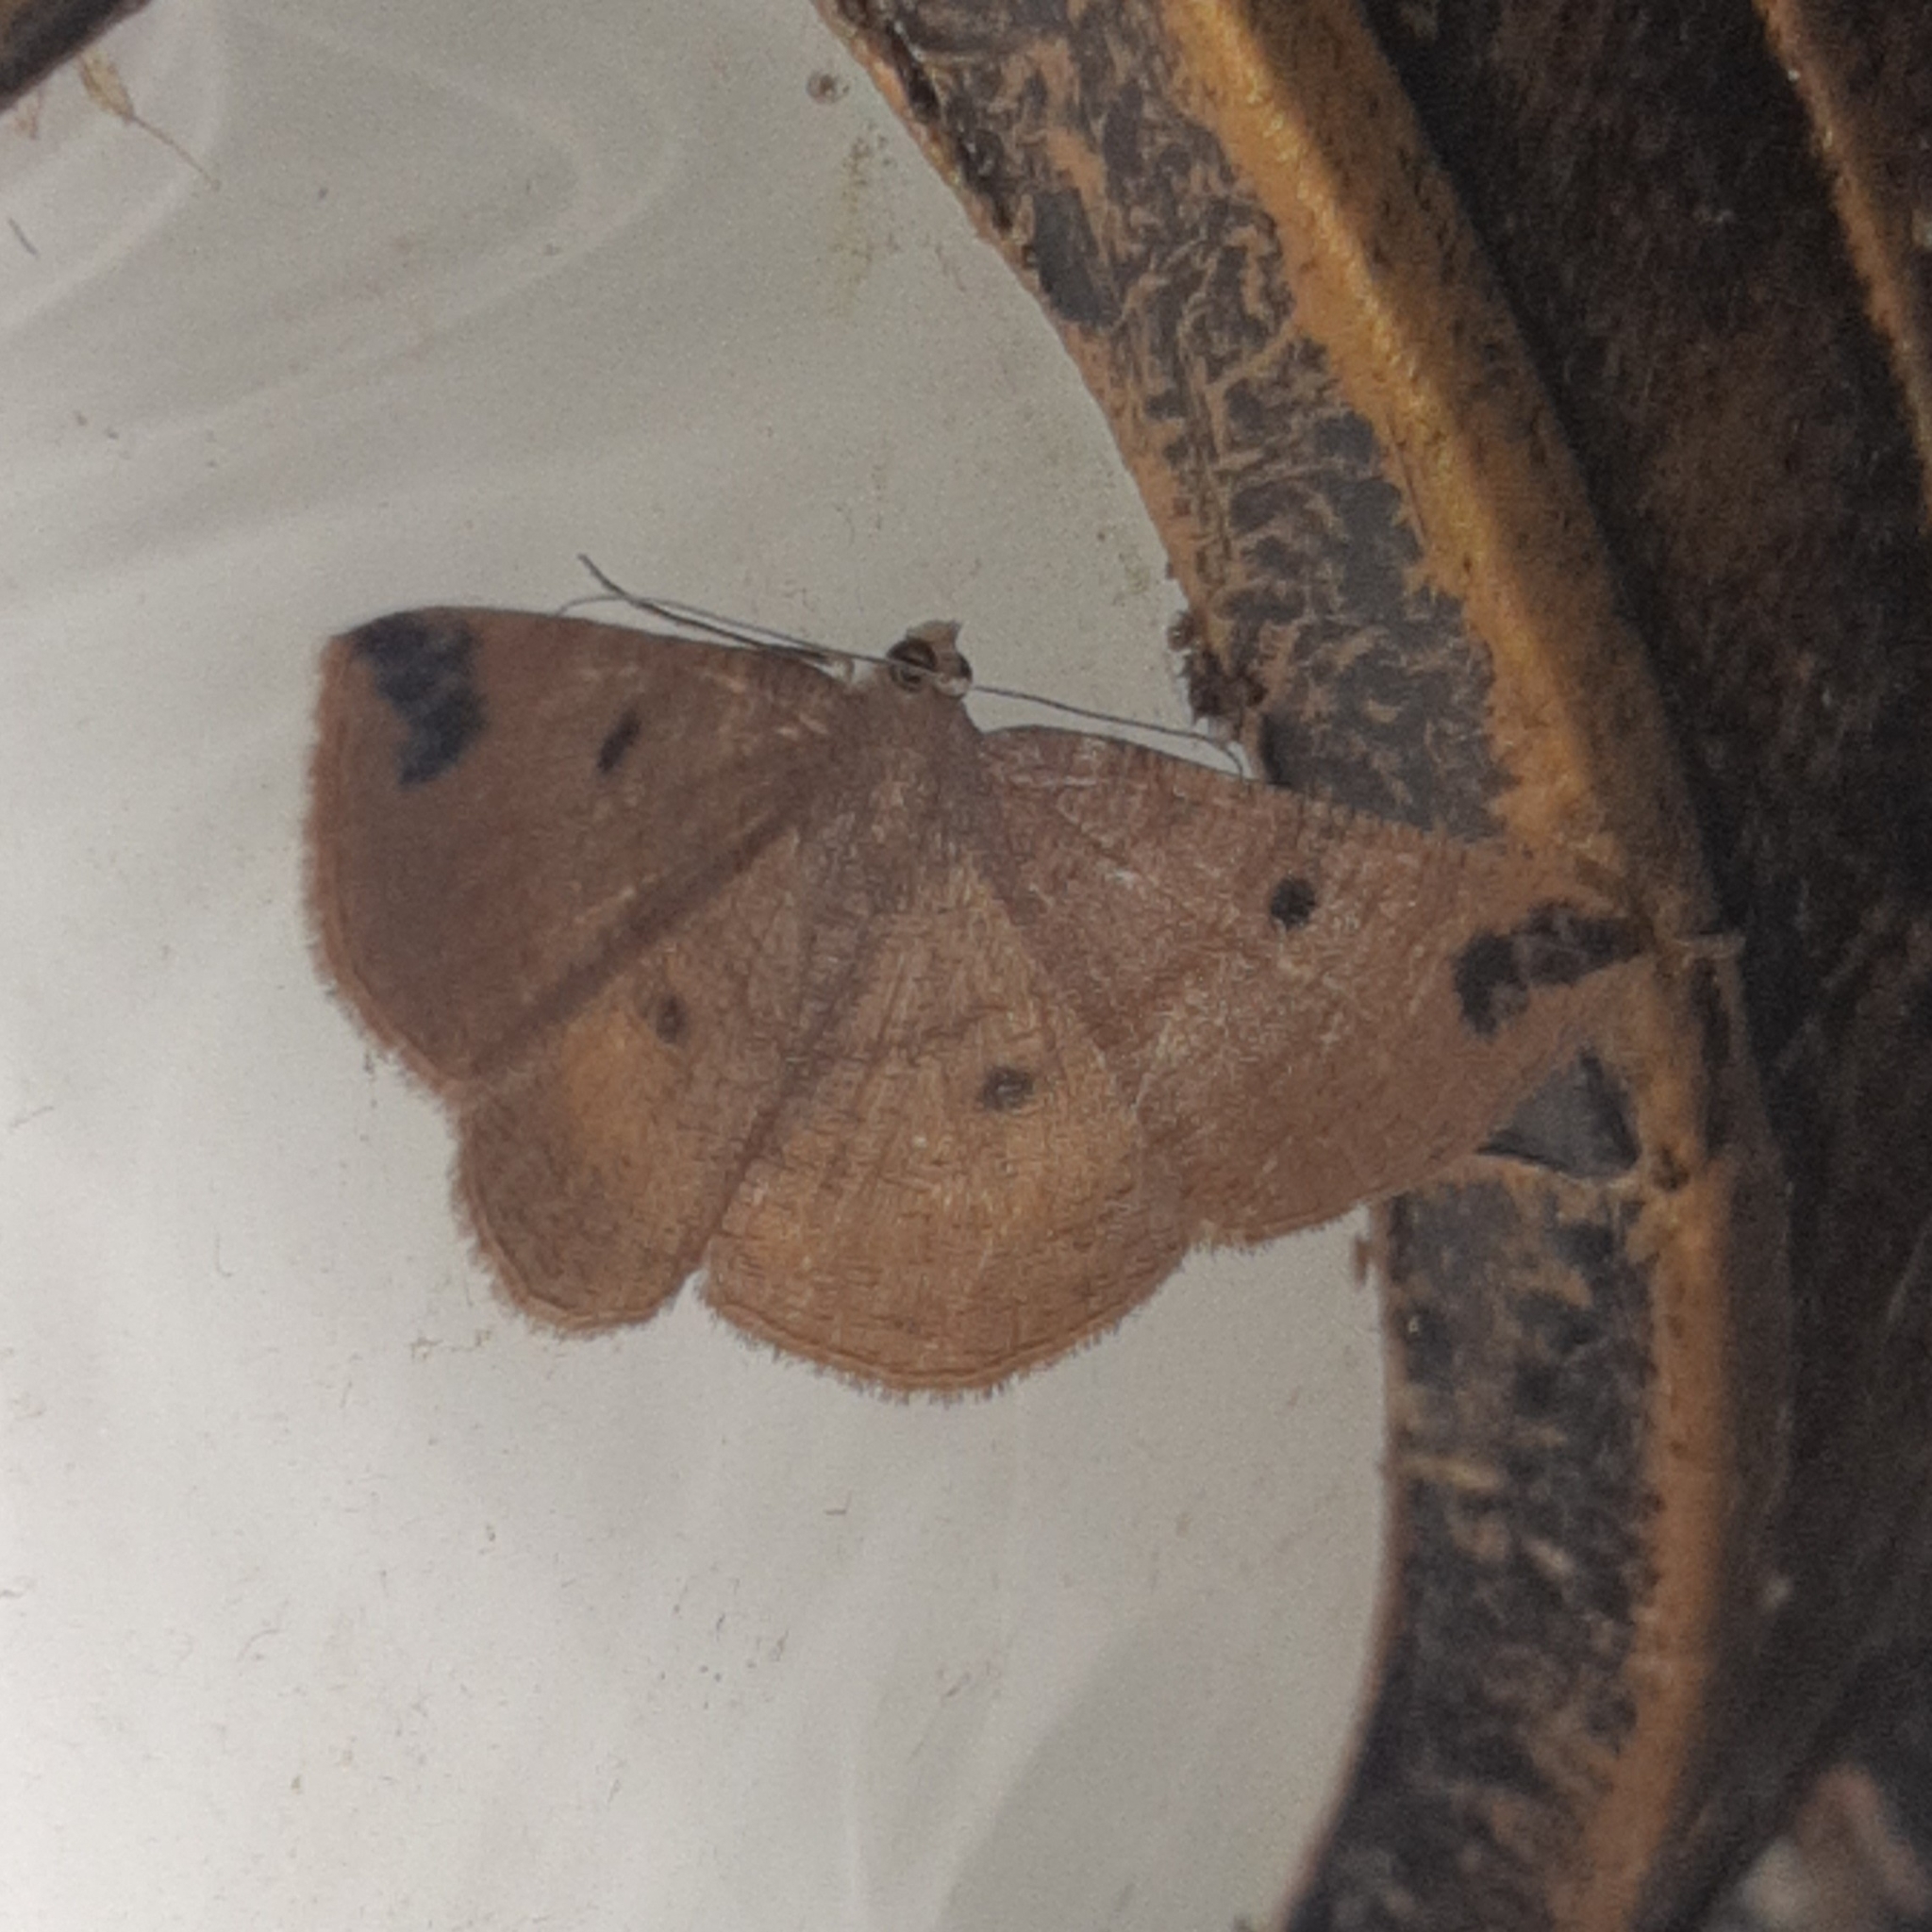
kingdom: Animalia
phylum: Arthropoda
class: Insecta
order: Lepidoptera
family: Geometridae
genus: Parilexia
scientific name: Parilexia nigristicta
